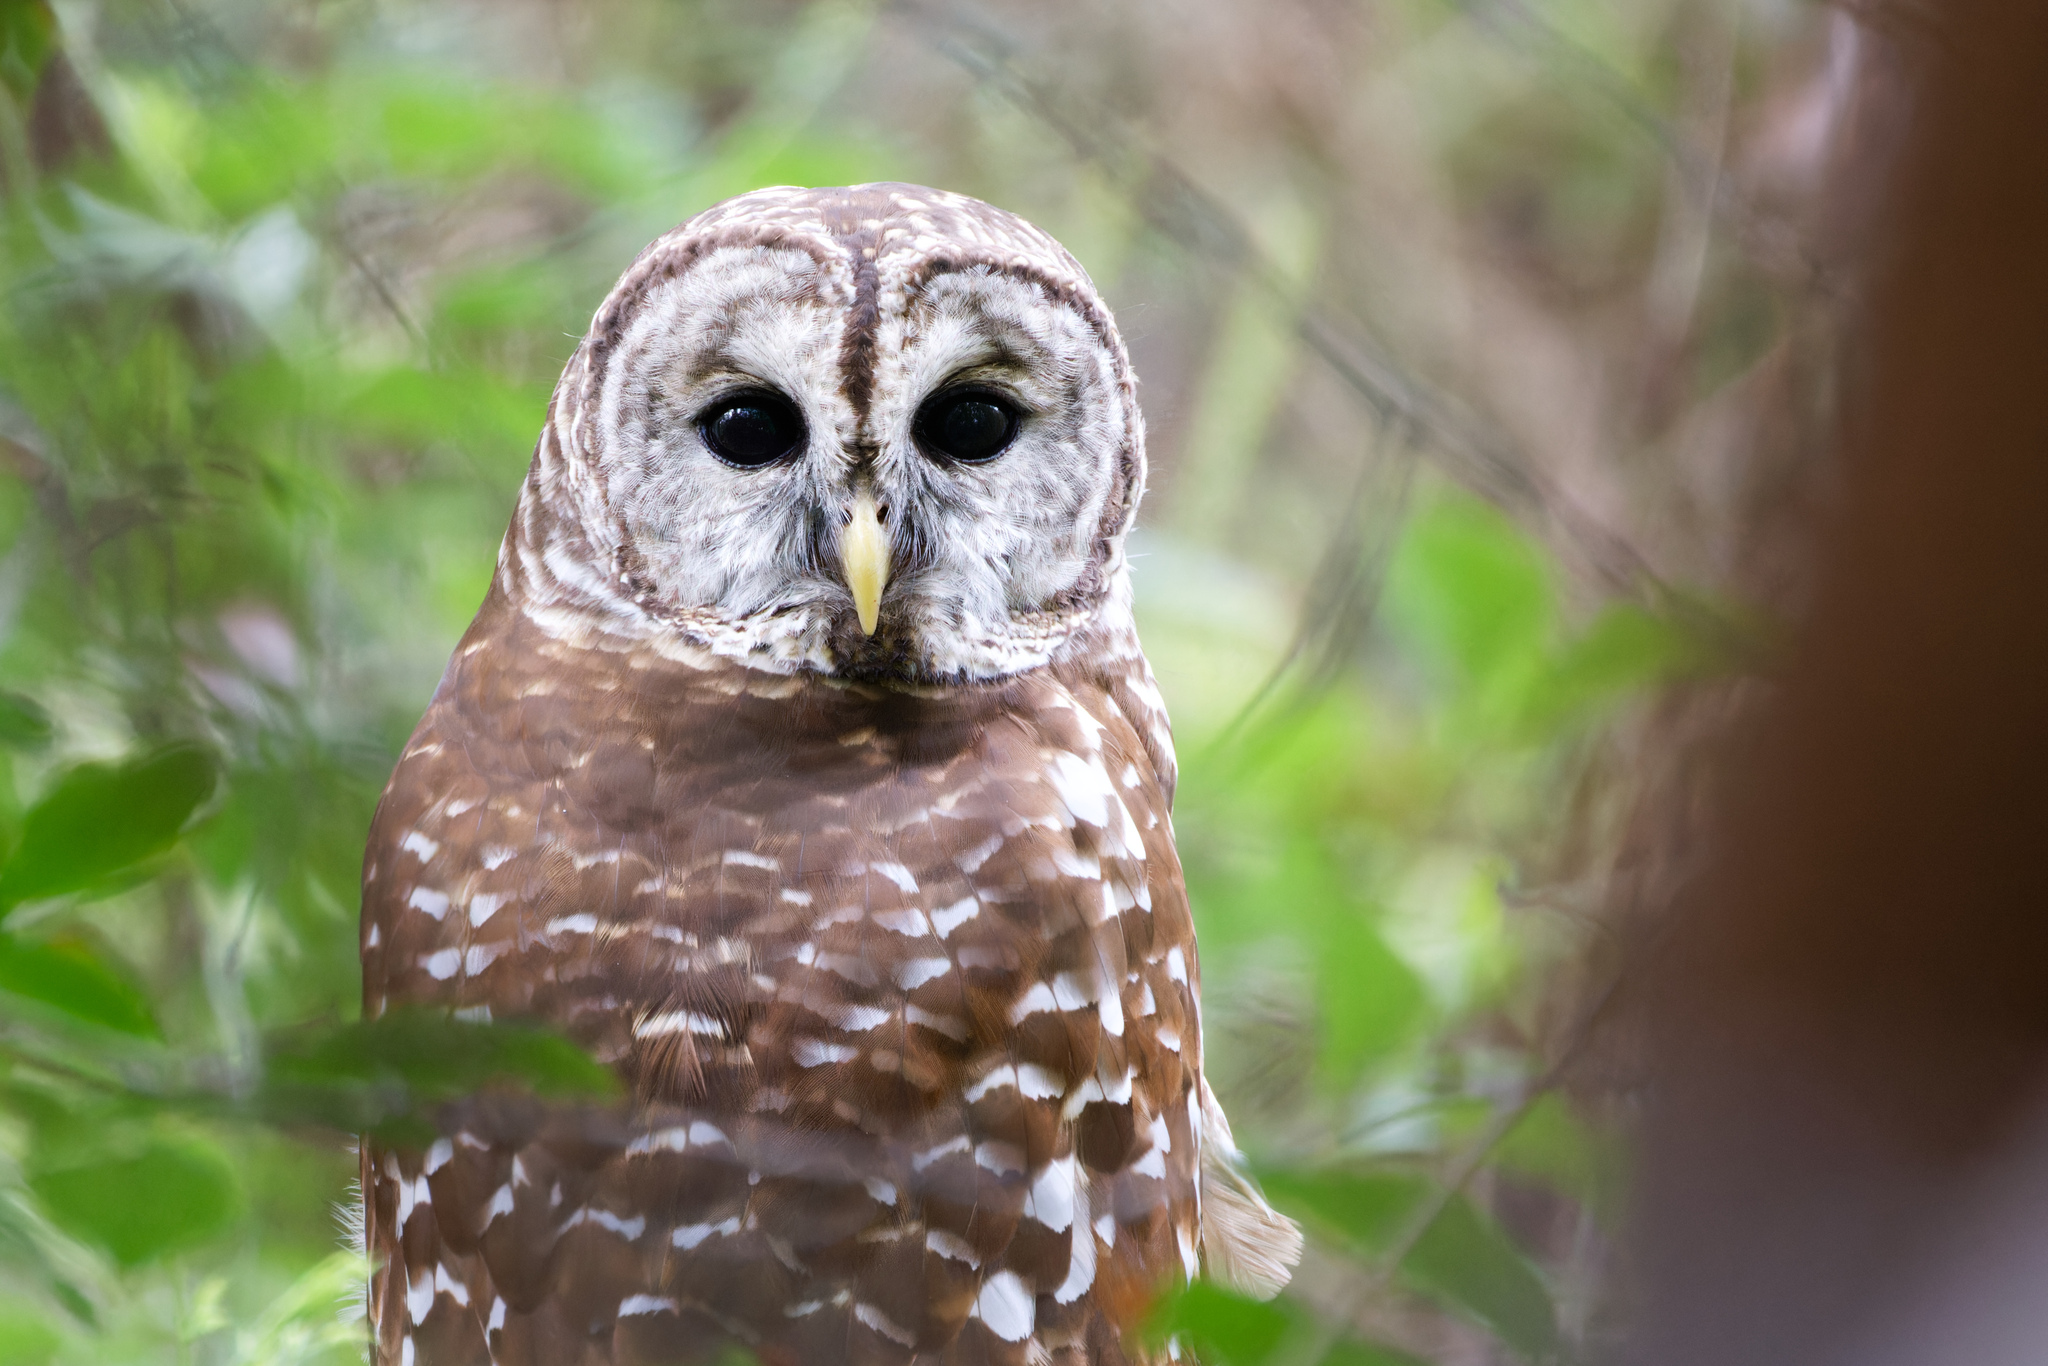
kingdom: Animalia
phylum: Chordata
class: Aves
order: Strigiformes
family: Strigidae
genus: Strix
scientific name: Strix varia
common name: Barred owl
